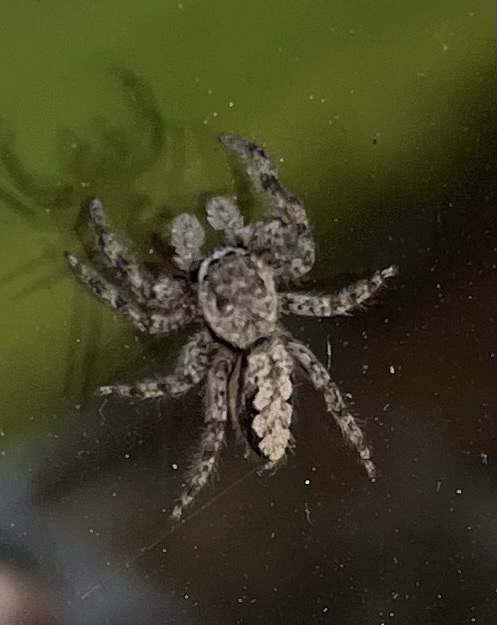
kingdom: Animalia
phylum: Arthropoda
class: Arachnida
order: Araneae
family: Salticidae
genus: Platycryptus
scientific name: Platycryptus undatus
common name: Tan jumping spider
